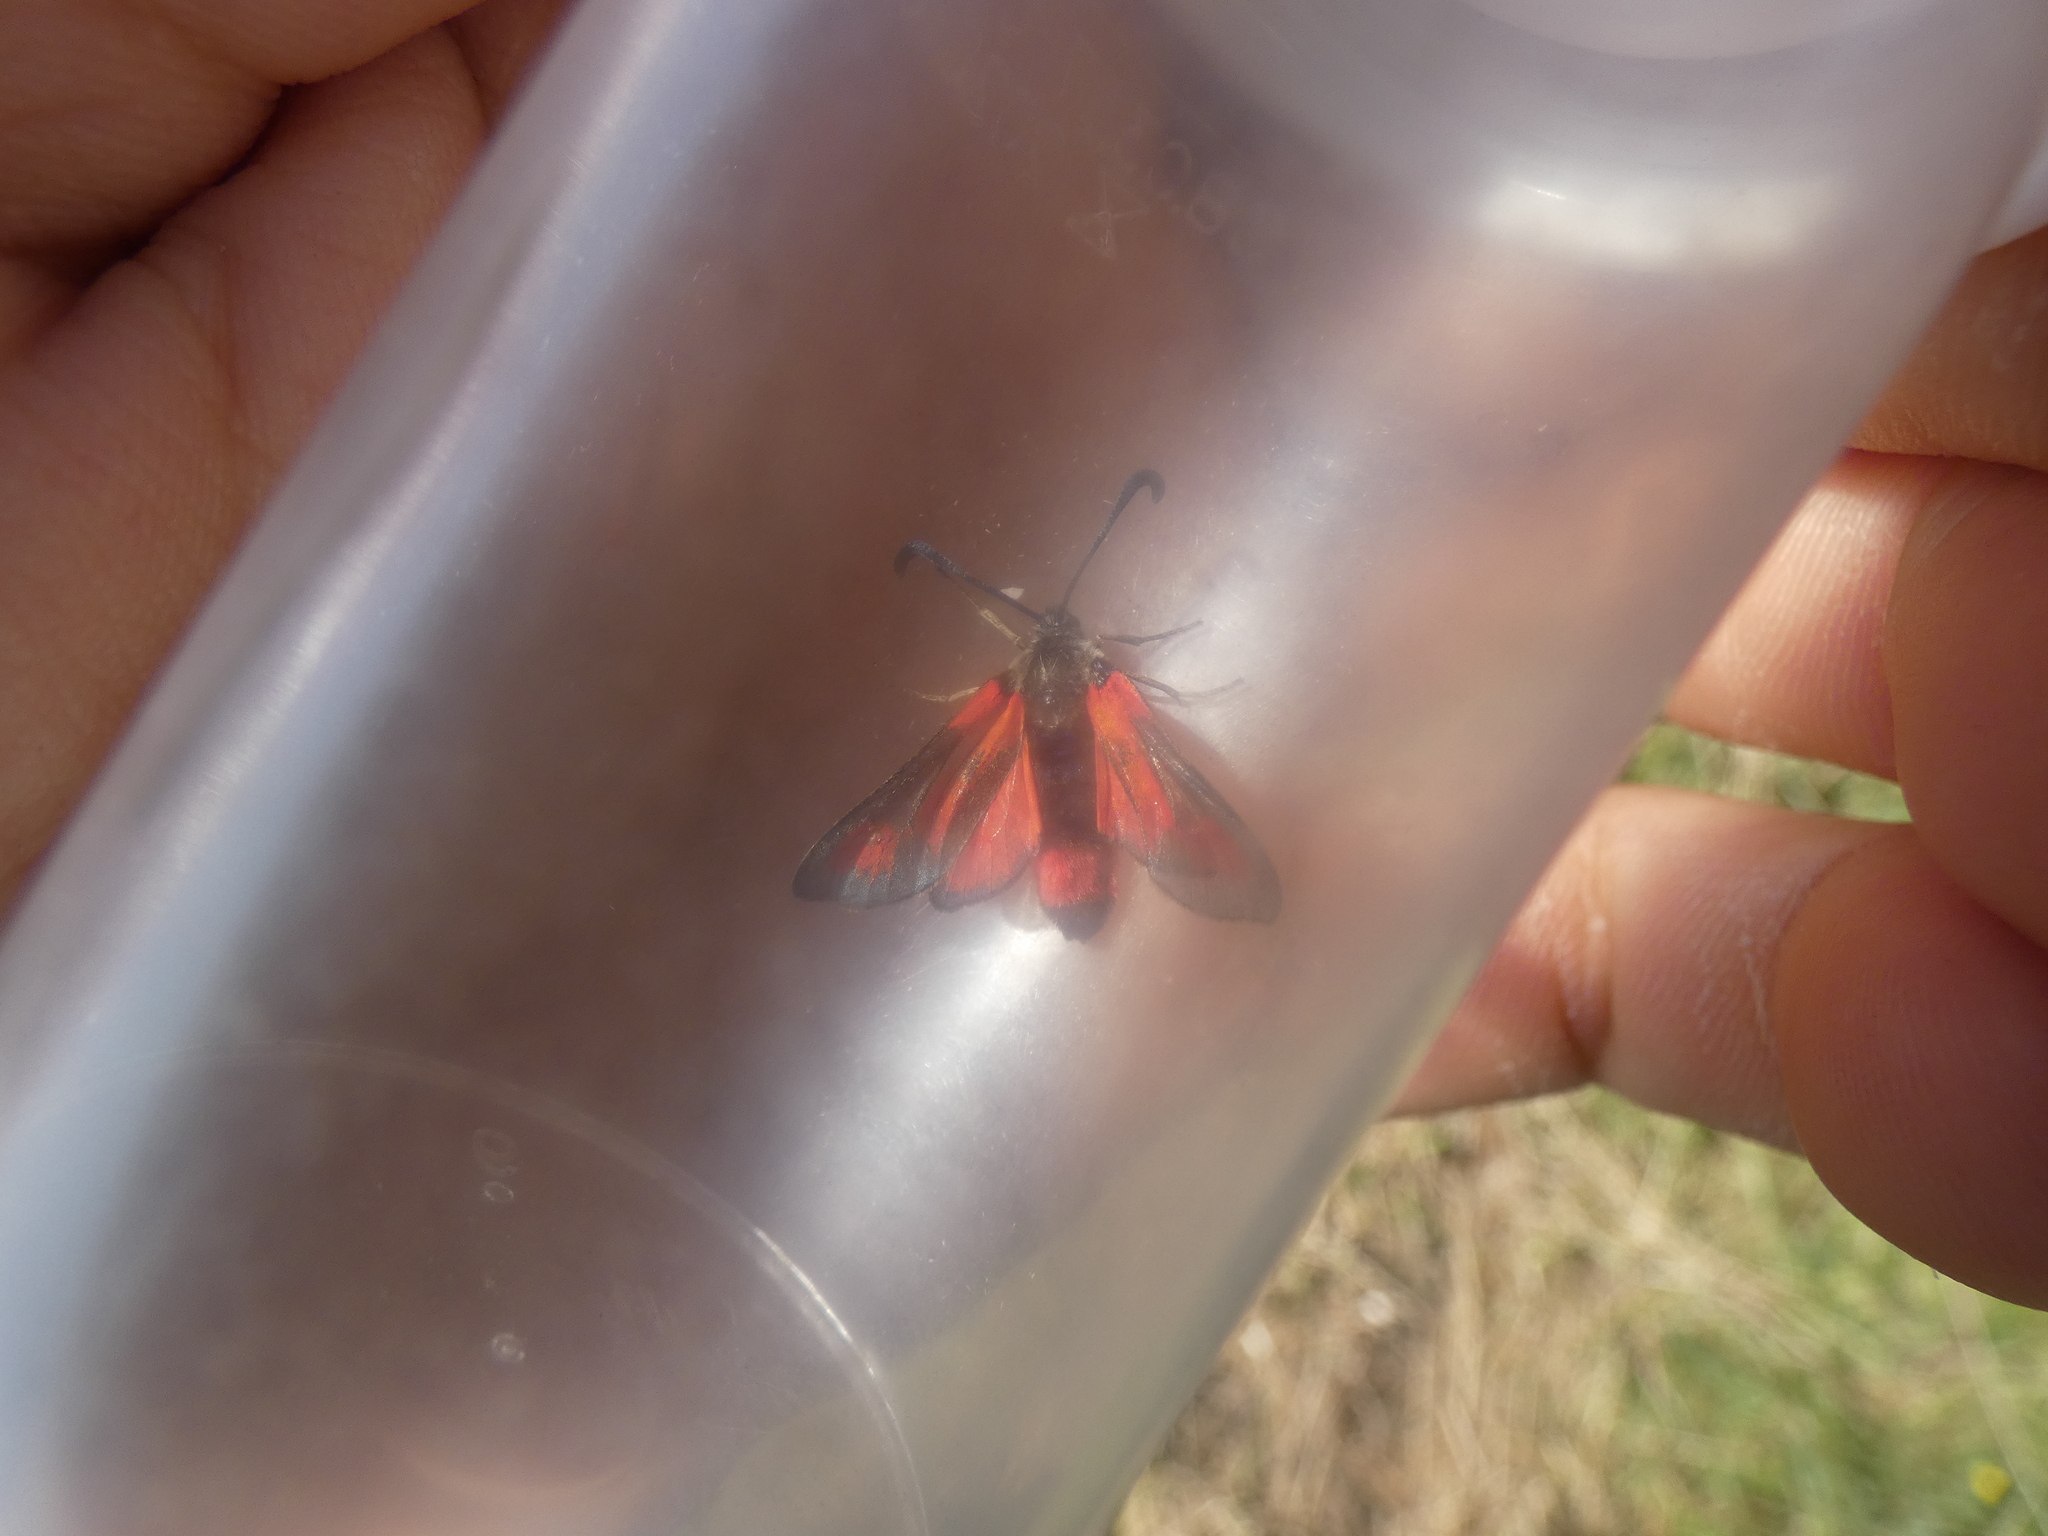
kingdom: Animalia
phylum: Arthropoda
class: Insecta
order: Lepidoptera
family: Zygaenidae
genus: Zygaena
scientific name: Zygaena sarpedon
